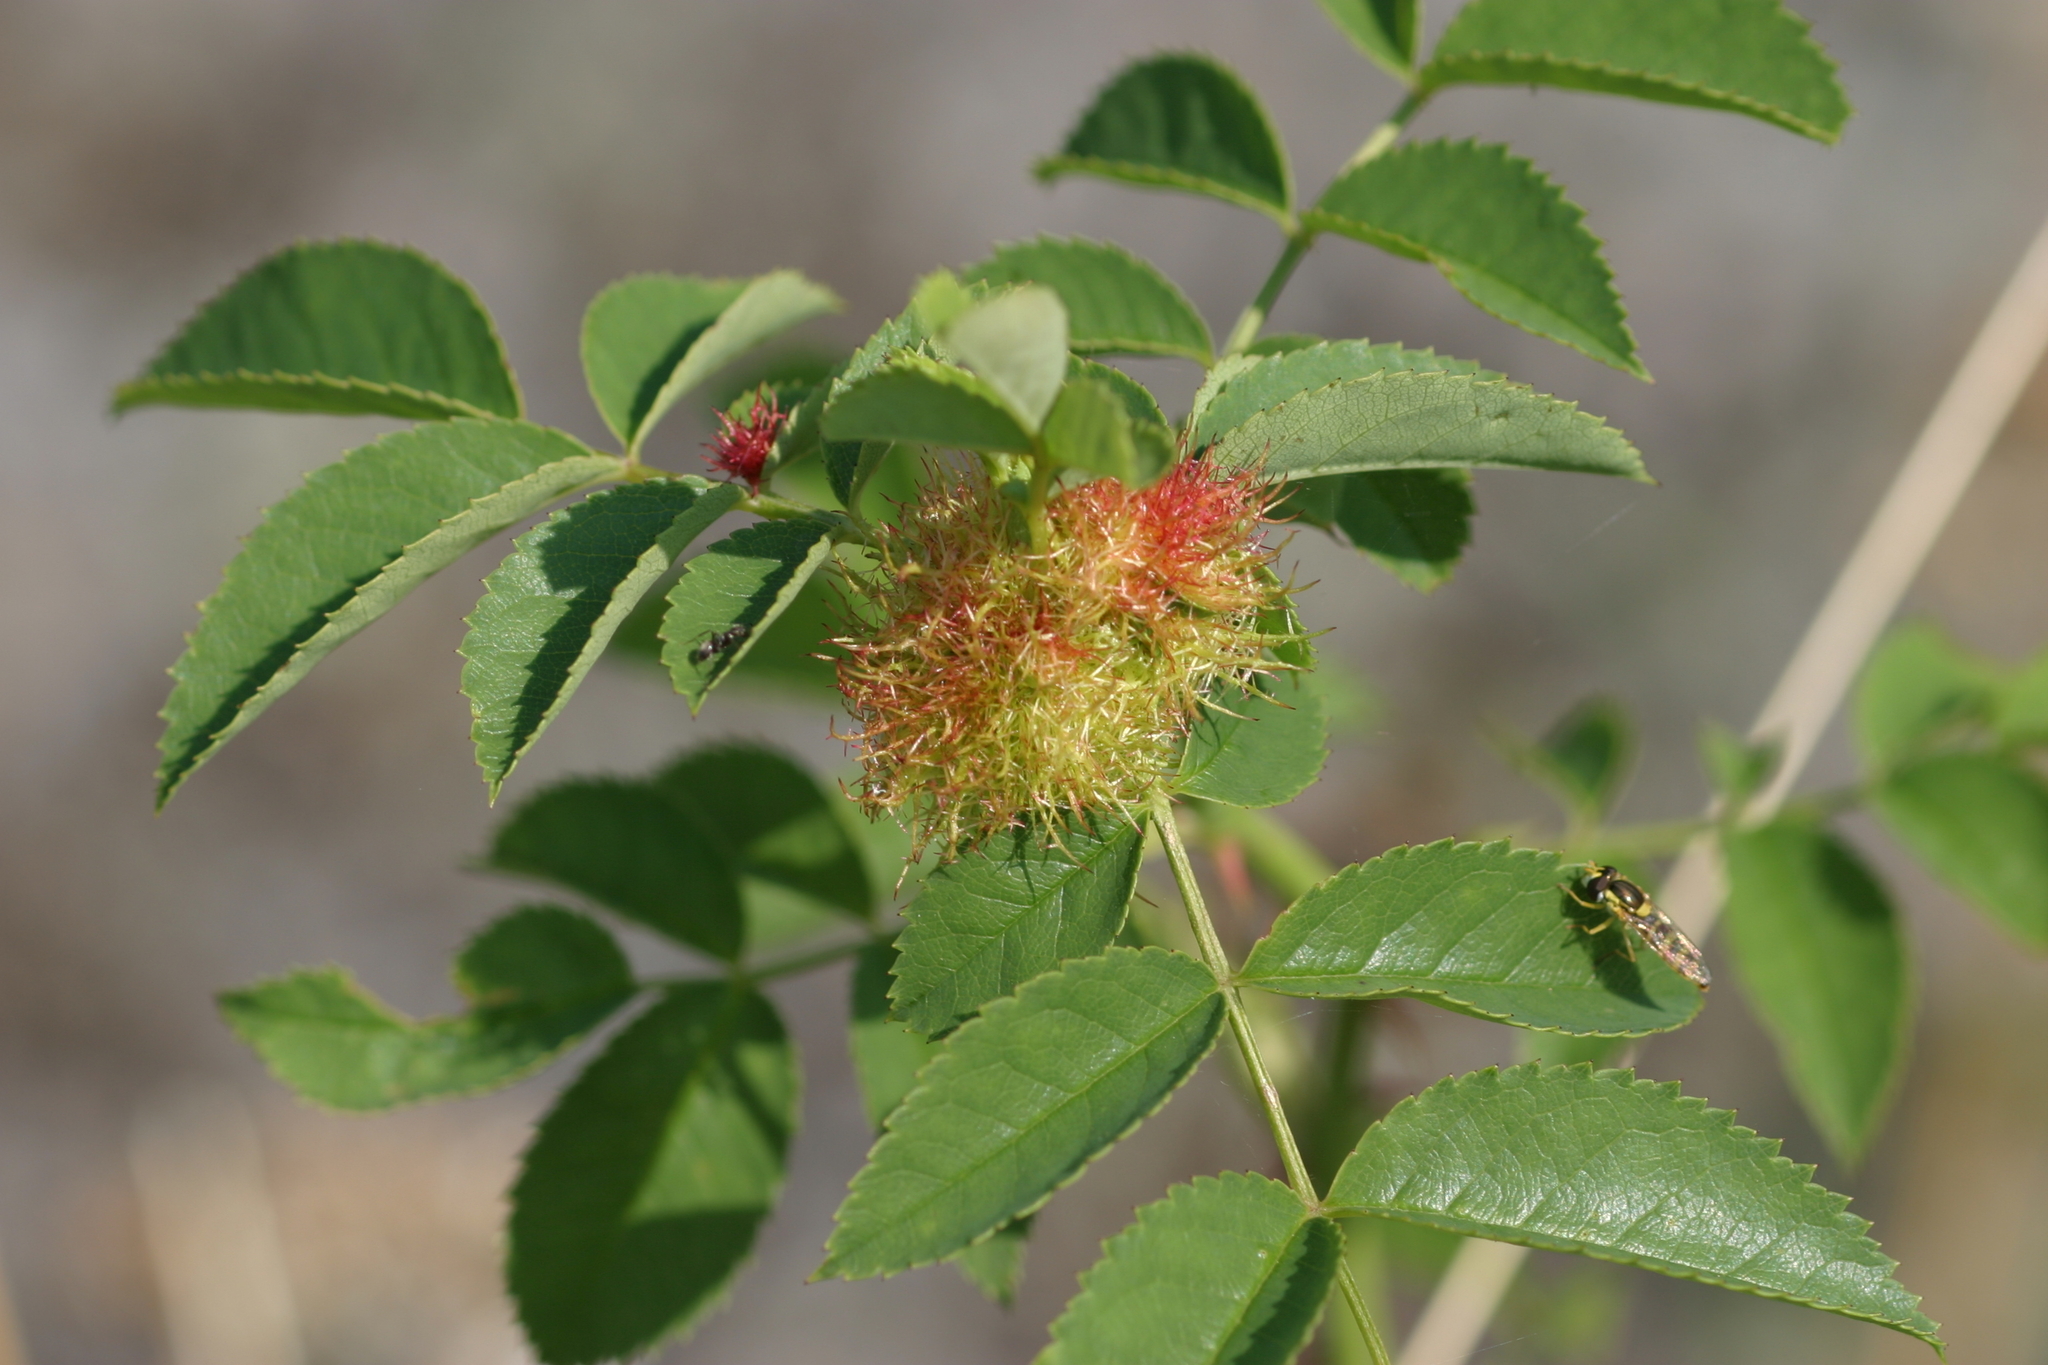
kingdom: Animalia
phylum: Arthropoda
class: Insecta
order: Hymenoptera
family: Cynipidae
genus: Diplolepis
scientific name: Diplolepis rosae
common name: Bedeguar gall
